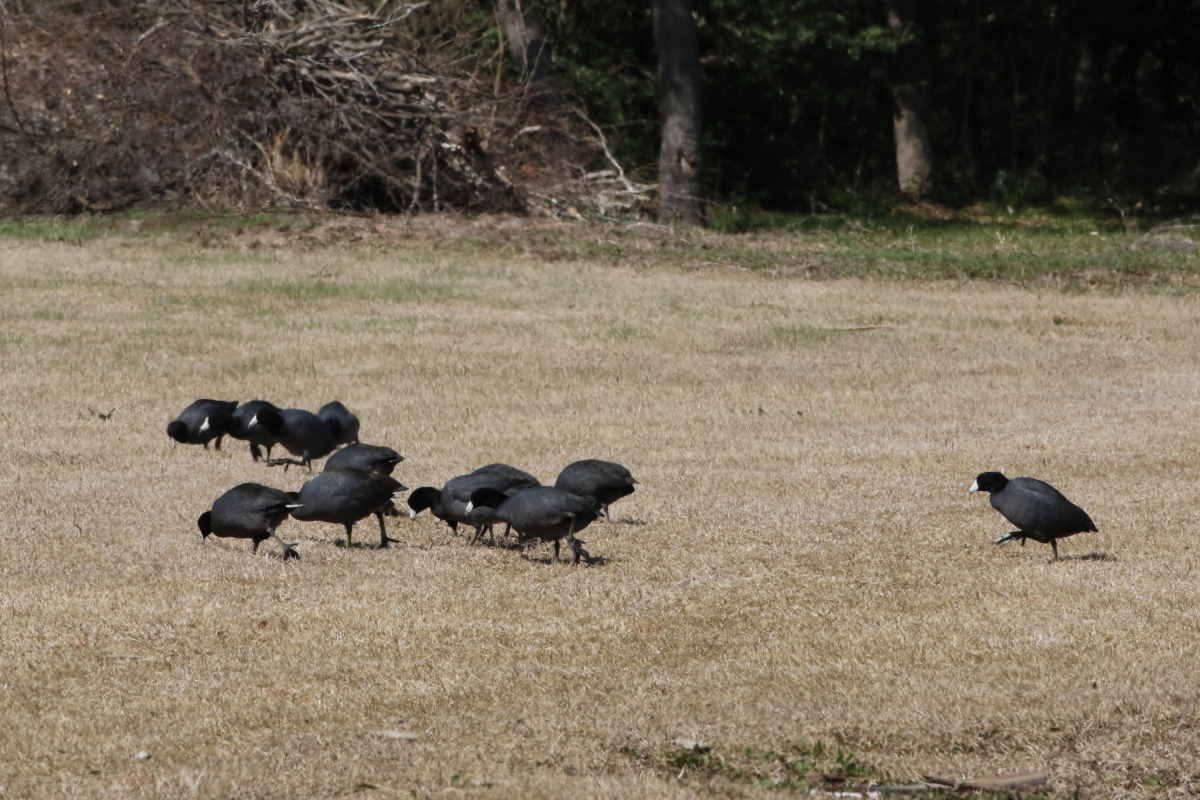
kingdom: Animalia
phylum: Chordata
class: Aves
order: Gruiformes
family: Rallidae
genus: Fulica
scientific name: Fulica americana
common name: American coot
